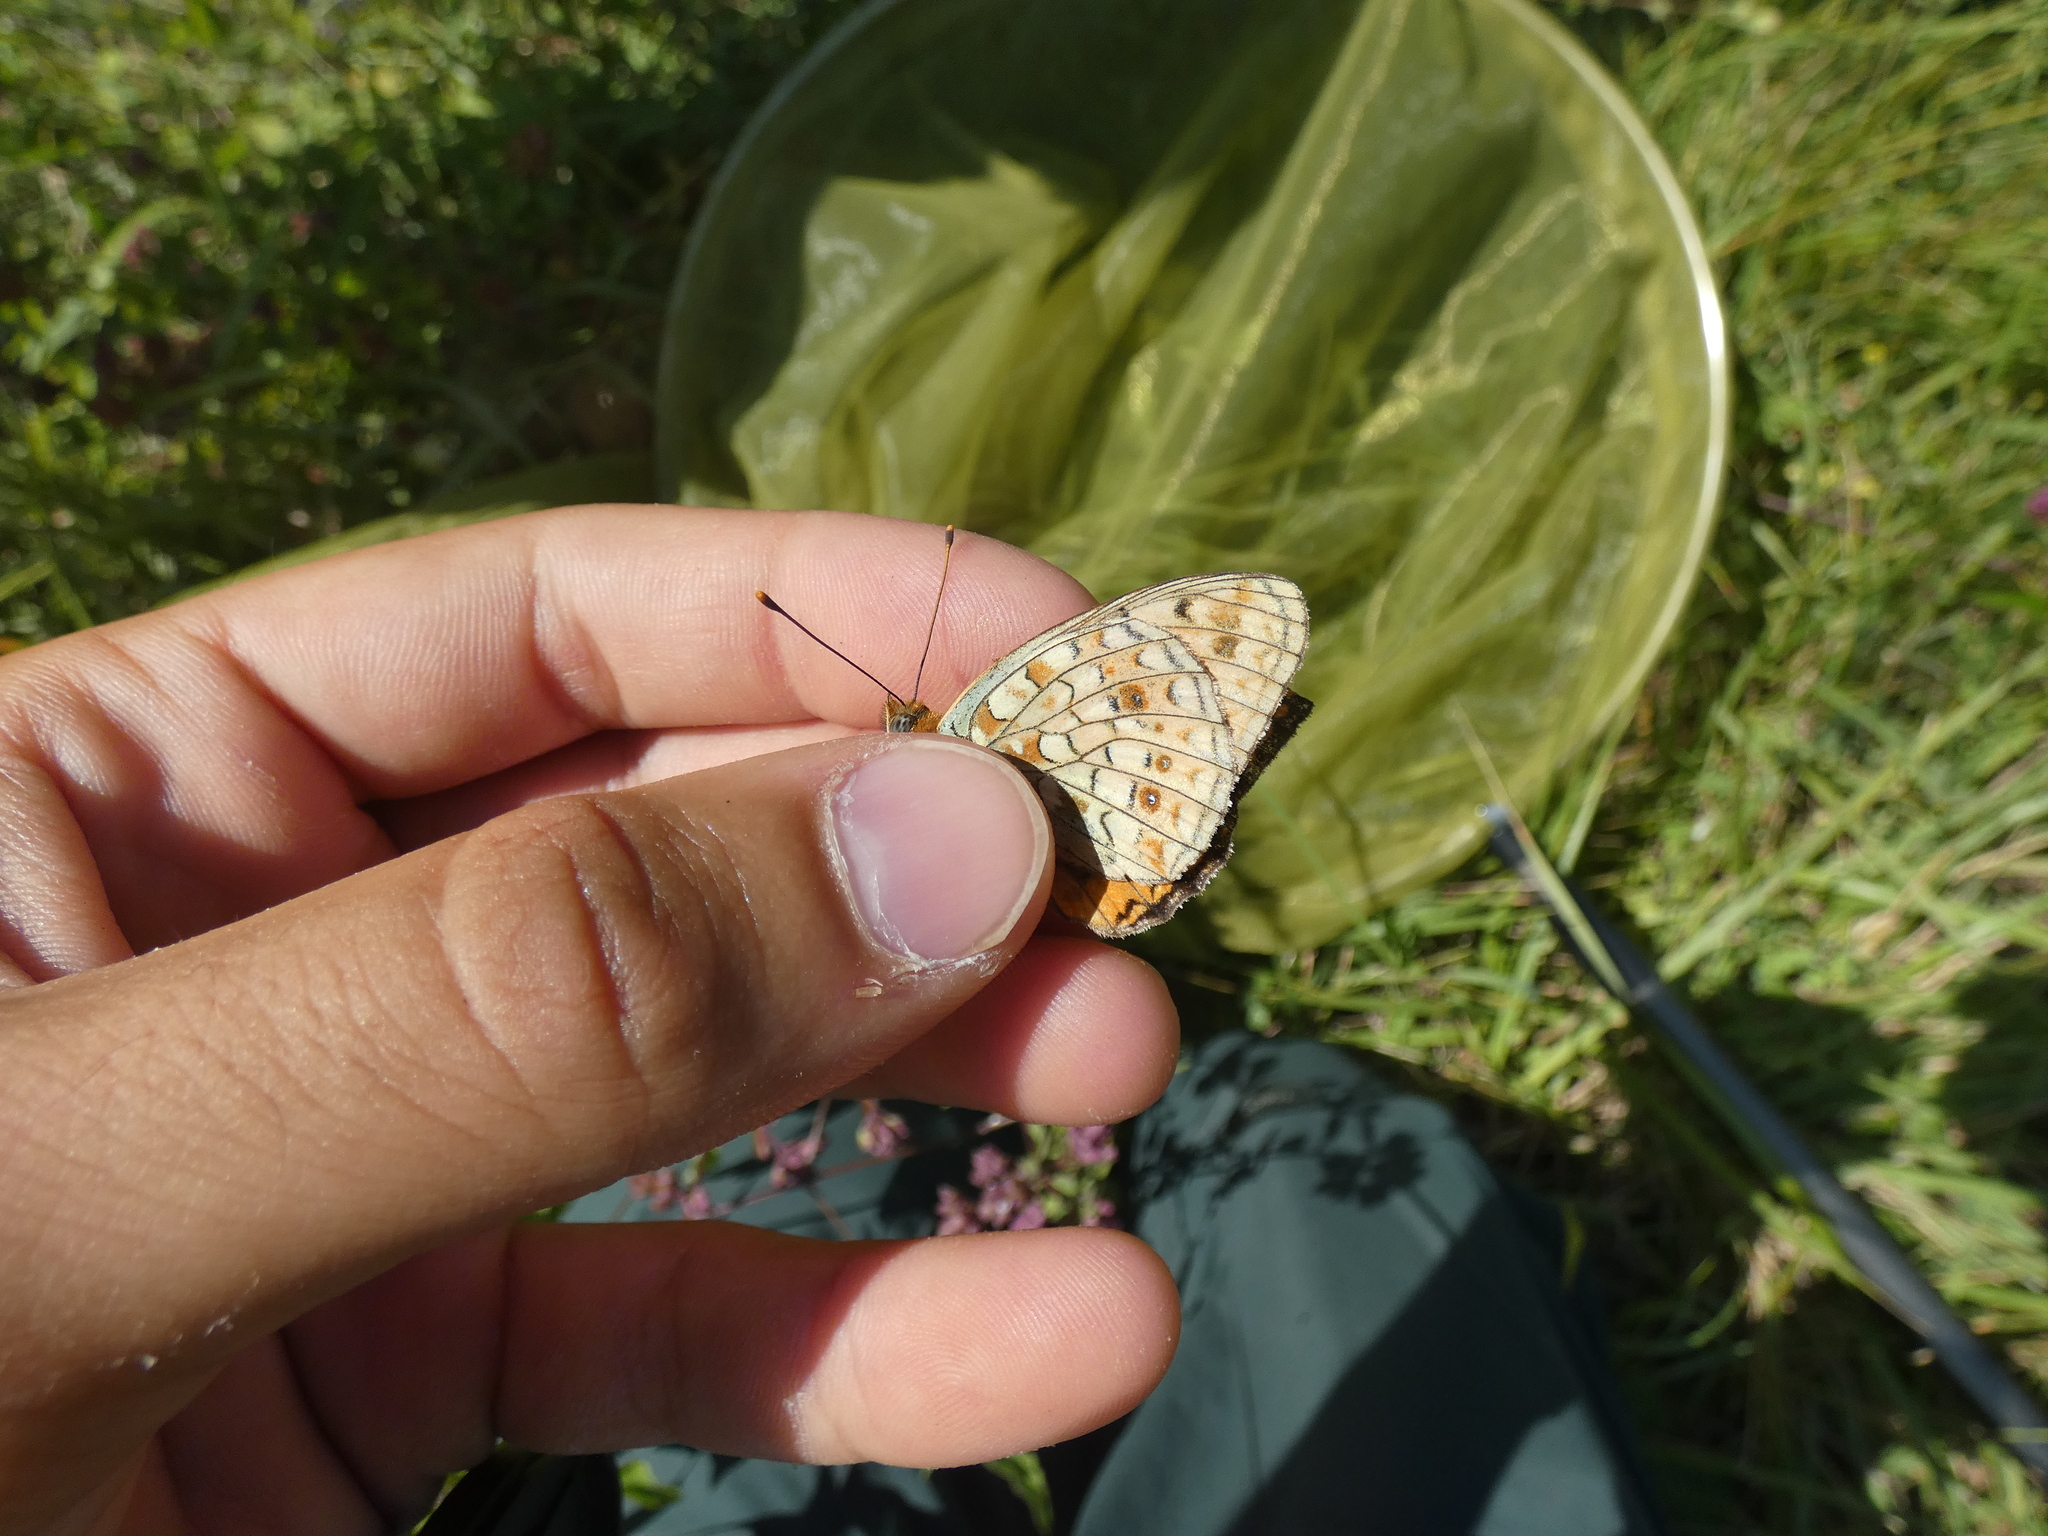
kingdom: Animalia
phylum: Arthropoda
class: Insecta
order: Lepidoptera
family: Nymphalidae
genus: Fabriciana
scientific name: Fabriciana niobe
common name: Niobe fritillary
